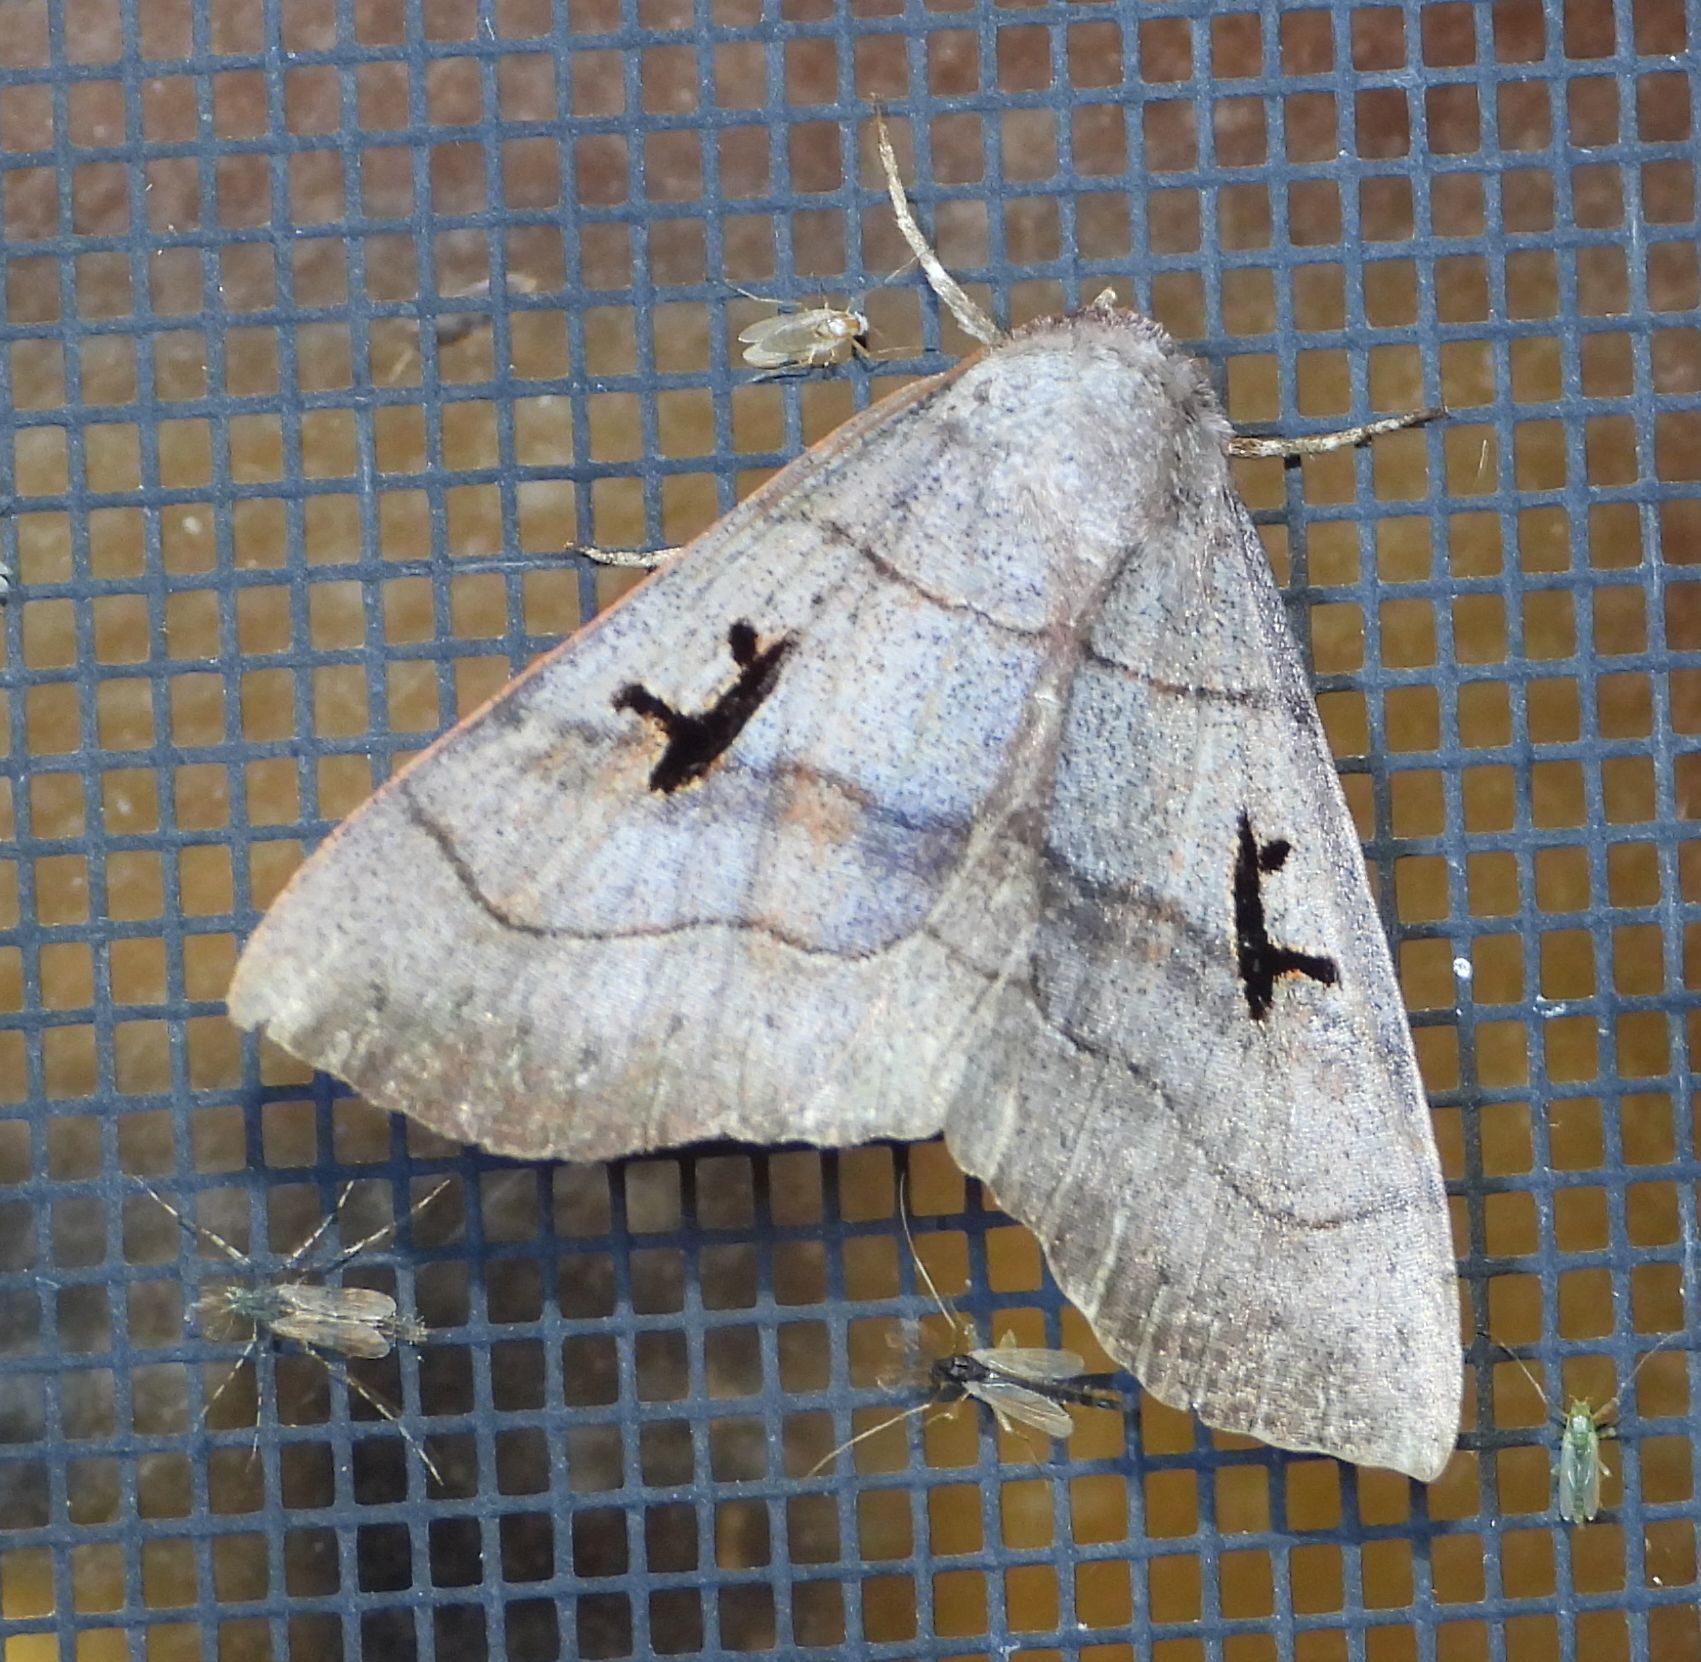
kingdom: Animalia
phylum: Arthropoda
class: Insecta
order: Lepidoptera
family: Erebidae
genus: Panopoda
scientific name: Panopoda carneicosta
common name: Brown panopoda moth
